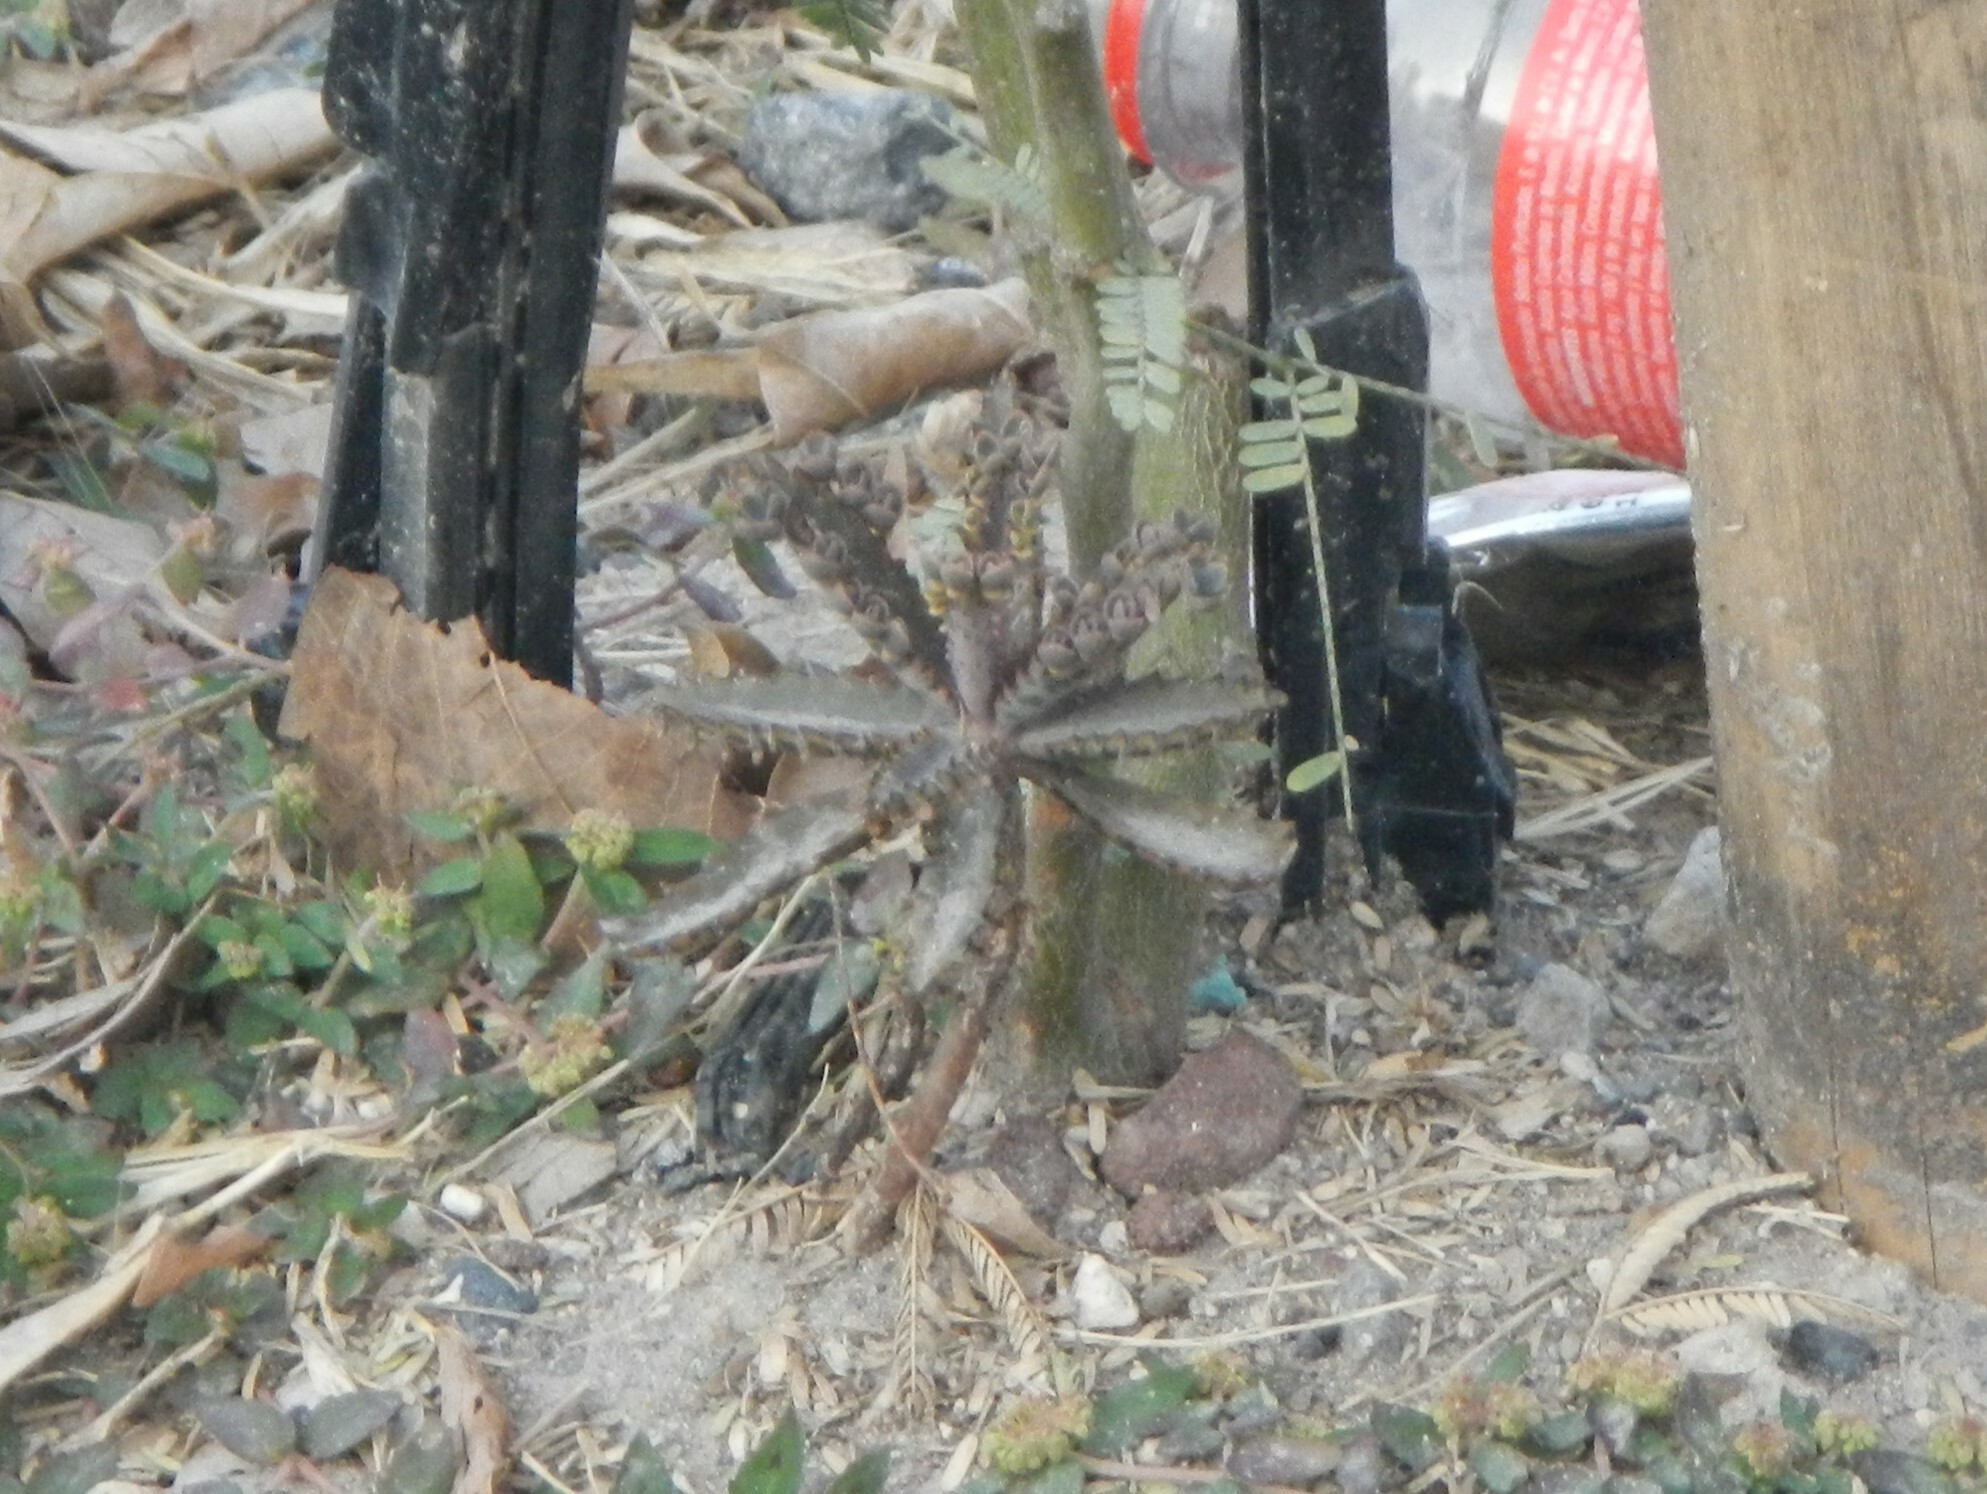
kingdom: Plantae
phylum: Tracheophyta
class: Magnoliopsida
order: Saxifragales
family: Crassulaceae
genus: Kalanchoe
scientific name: Kalanchoe houghtonii
